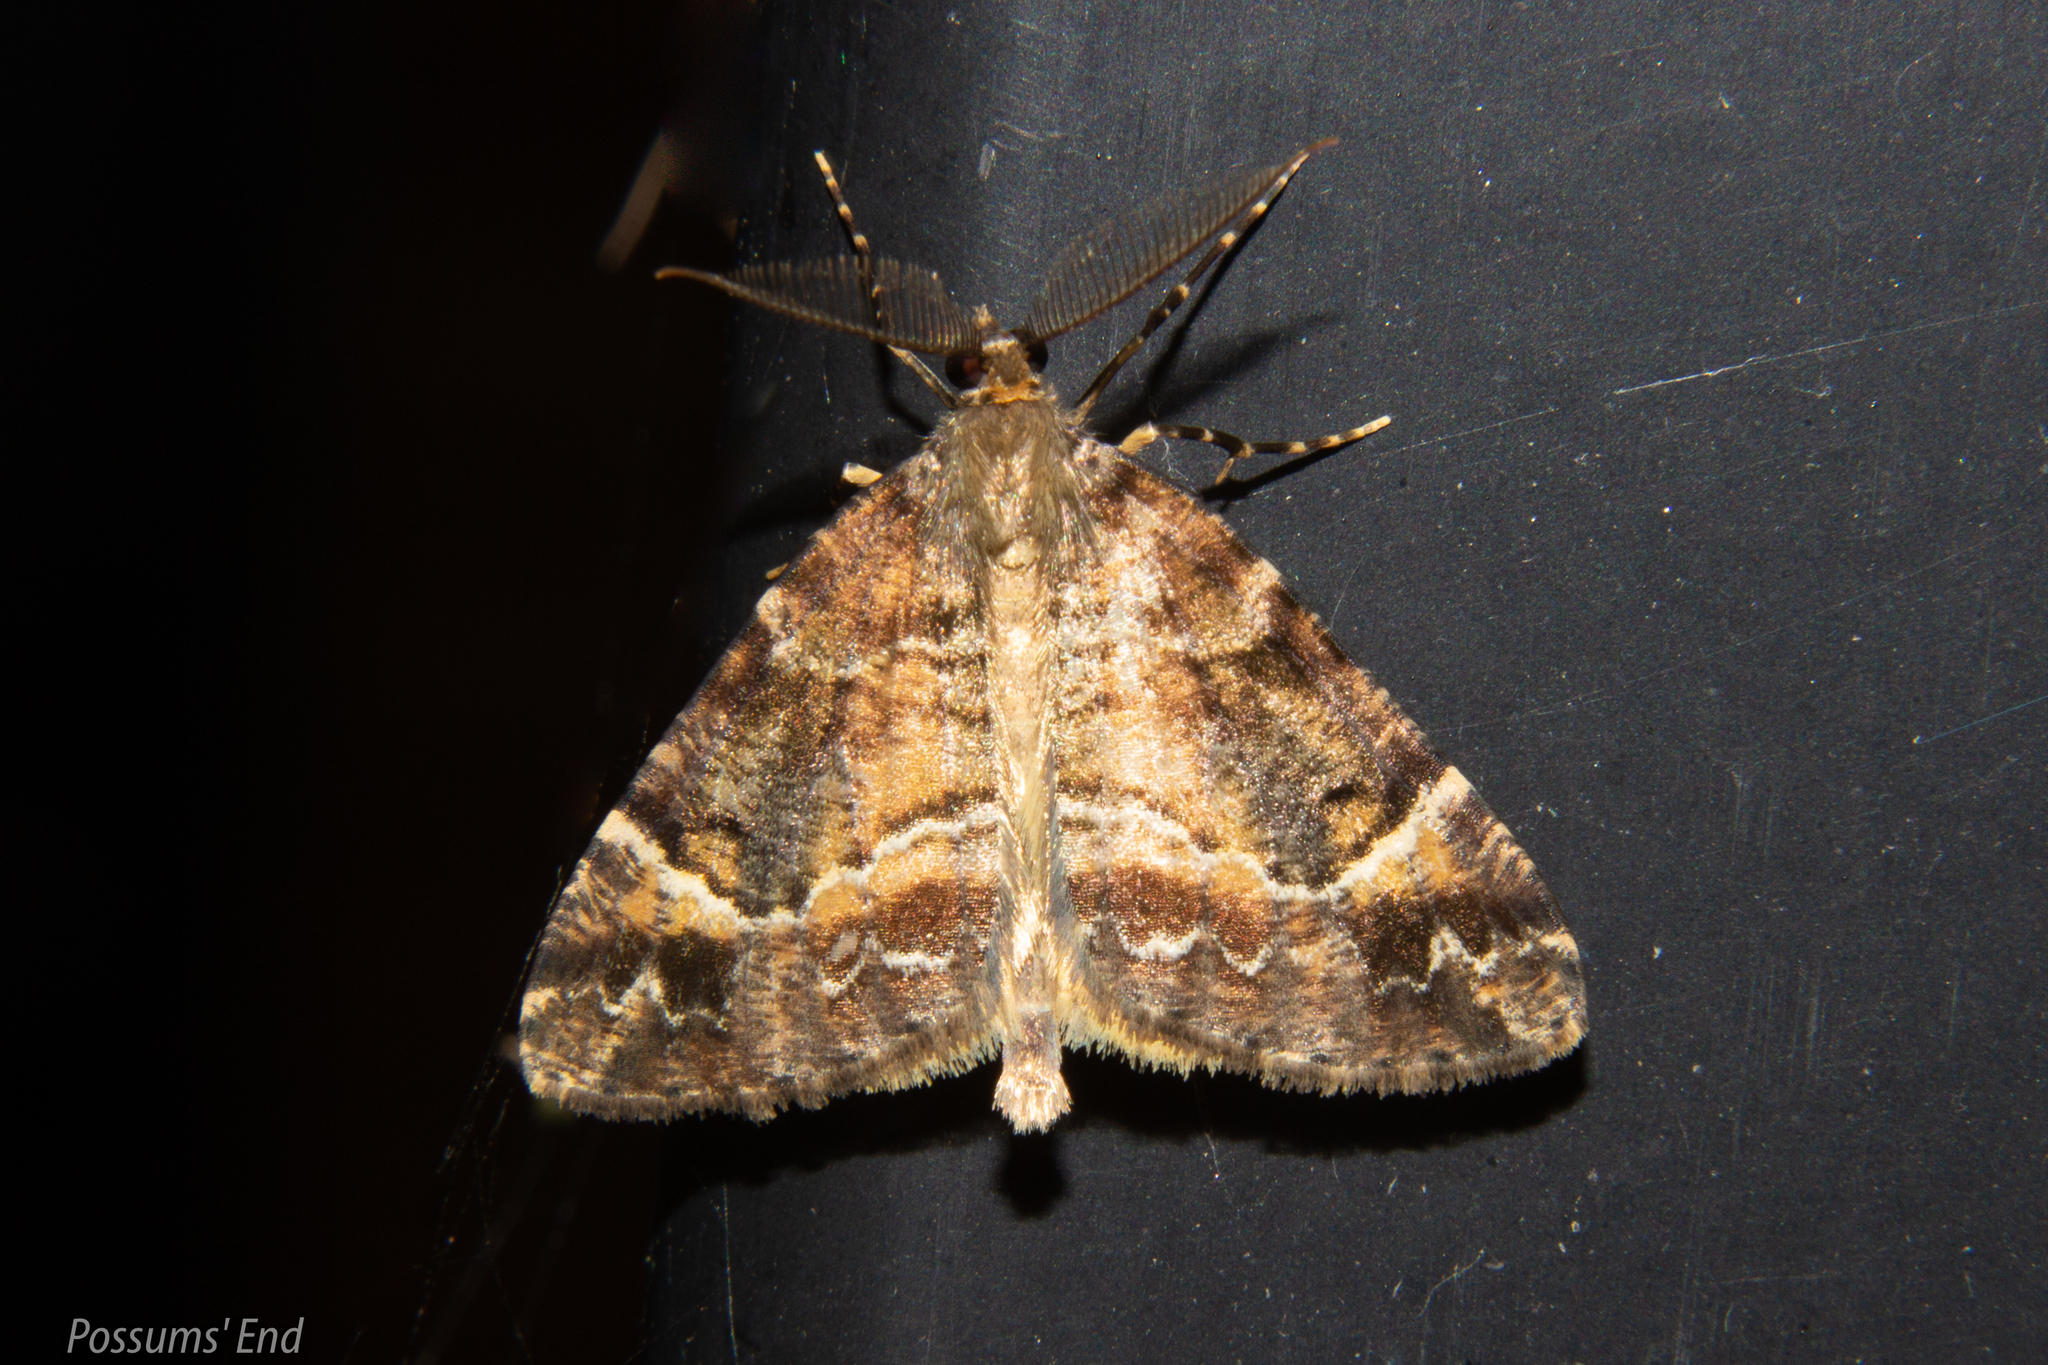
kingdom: Animalia
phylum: Arthropoda
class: Insecta
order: Lepidoptera
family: Geometridae
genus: Pseudocoremia
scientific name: Pseudocoremia productata
